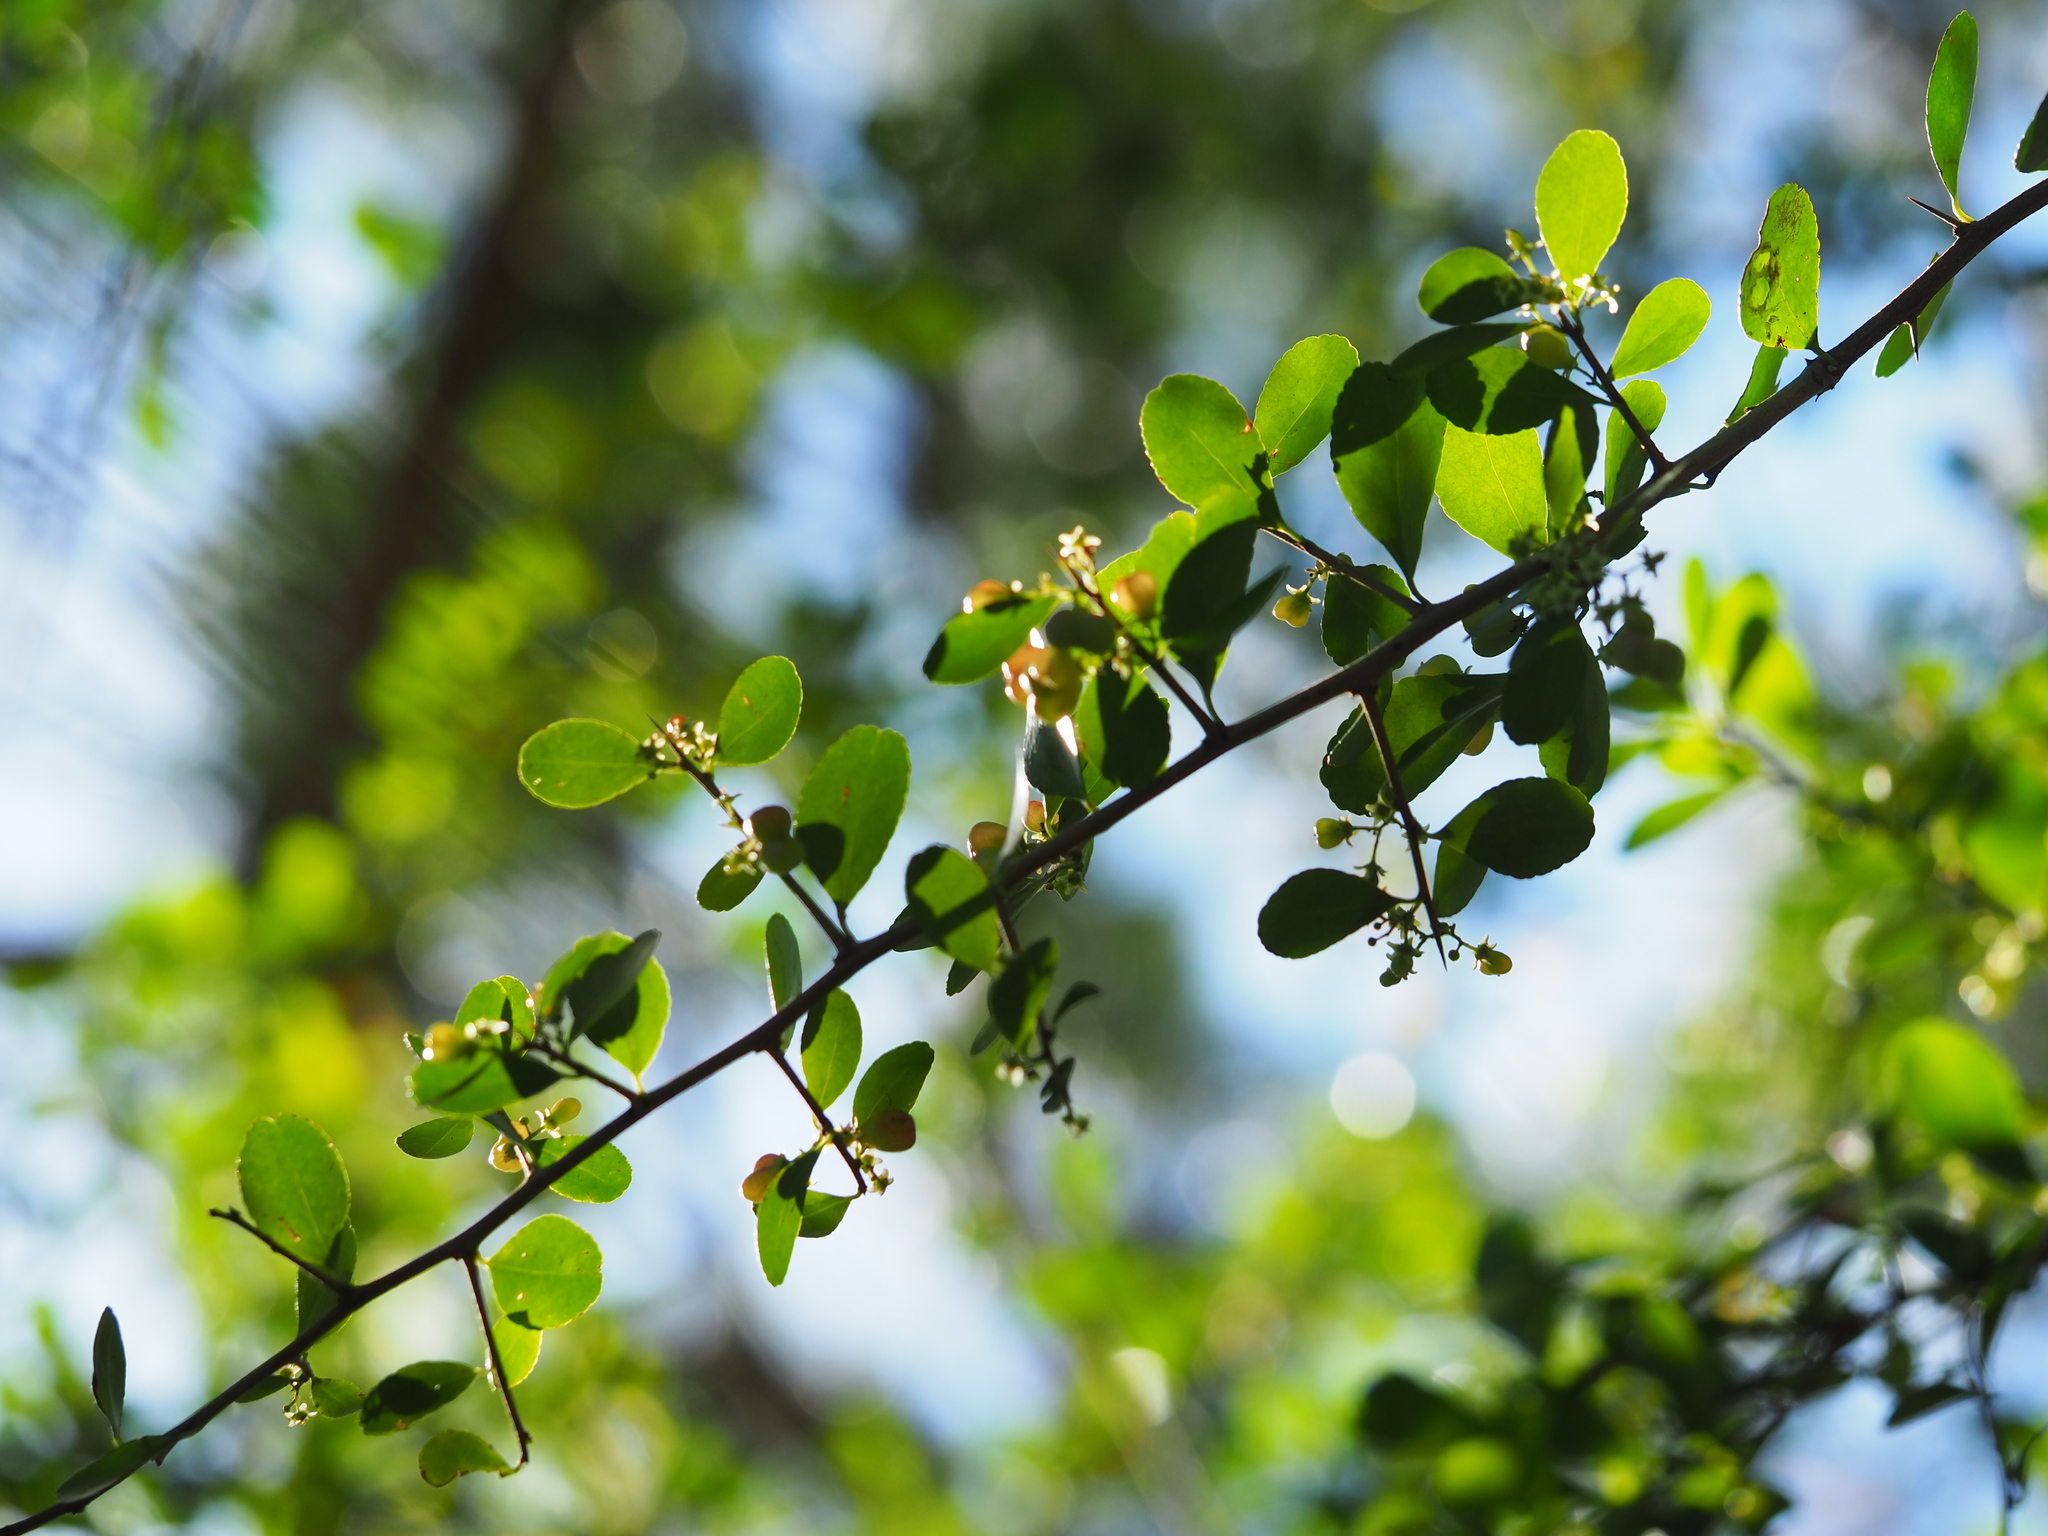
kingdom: Plantae
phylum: Tracheophyta
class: Magnoliopsida
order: Celastrales
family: Celastraceae
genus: Gymnosporia
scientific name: Gymnosporia diversifolia
